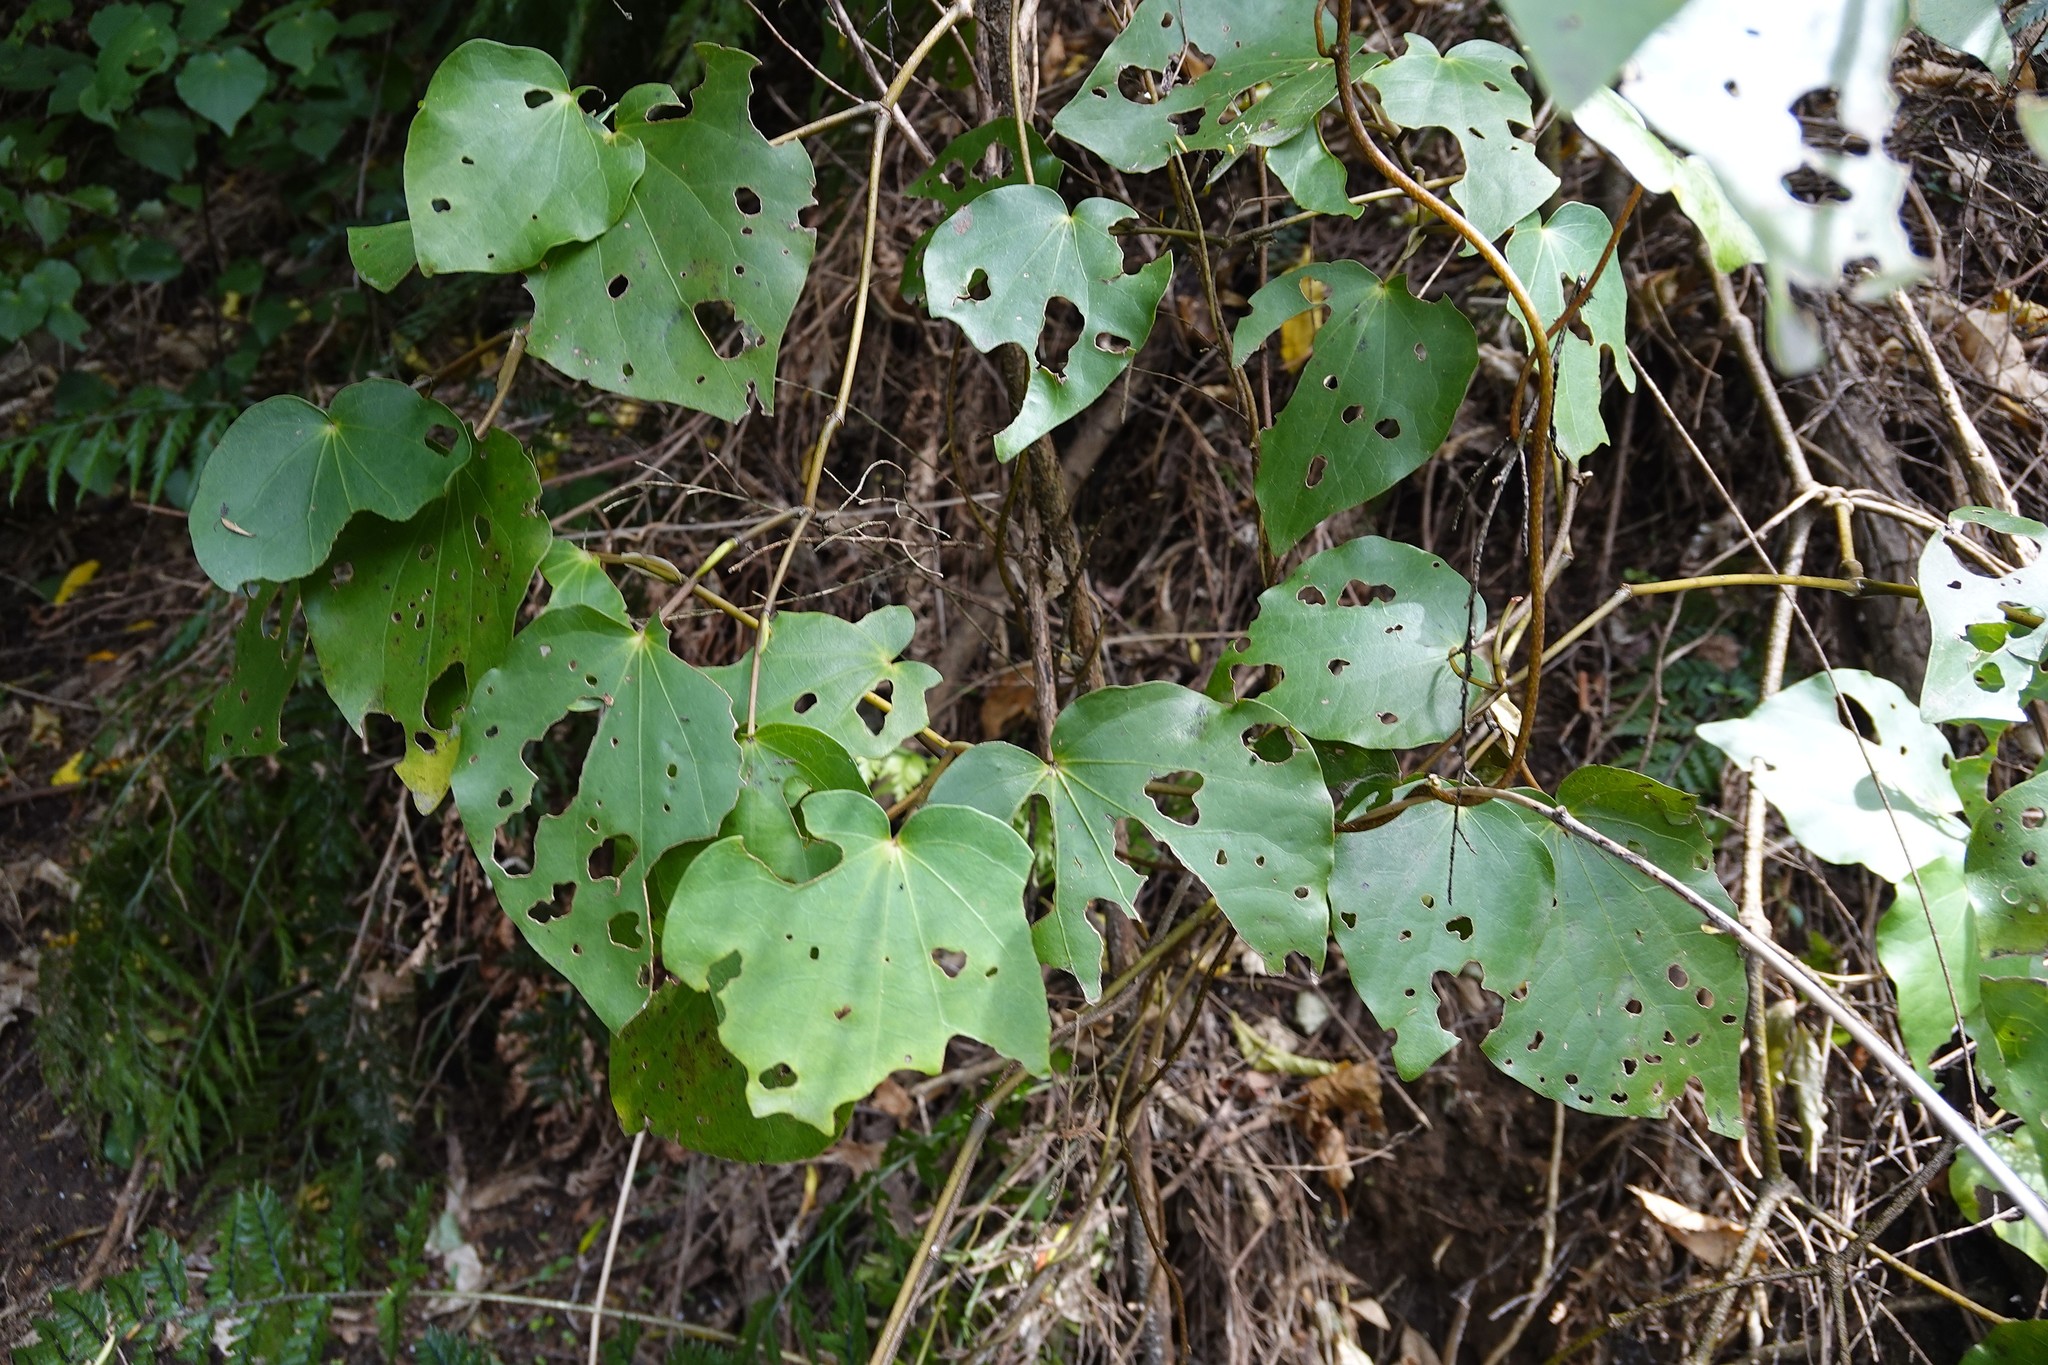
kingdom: Animalia
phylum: Arthropoda
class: Insecta
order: Lepidoptera
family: Geometridae
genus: Cleora
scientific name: Cleora scriptaria
